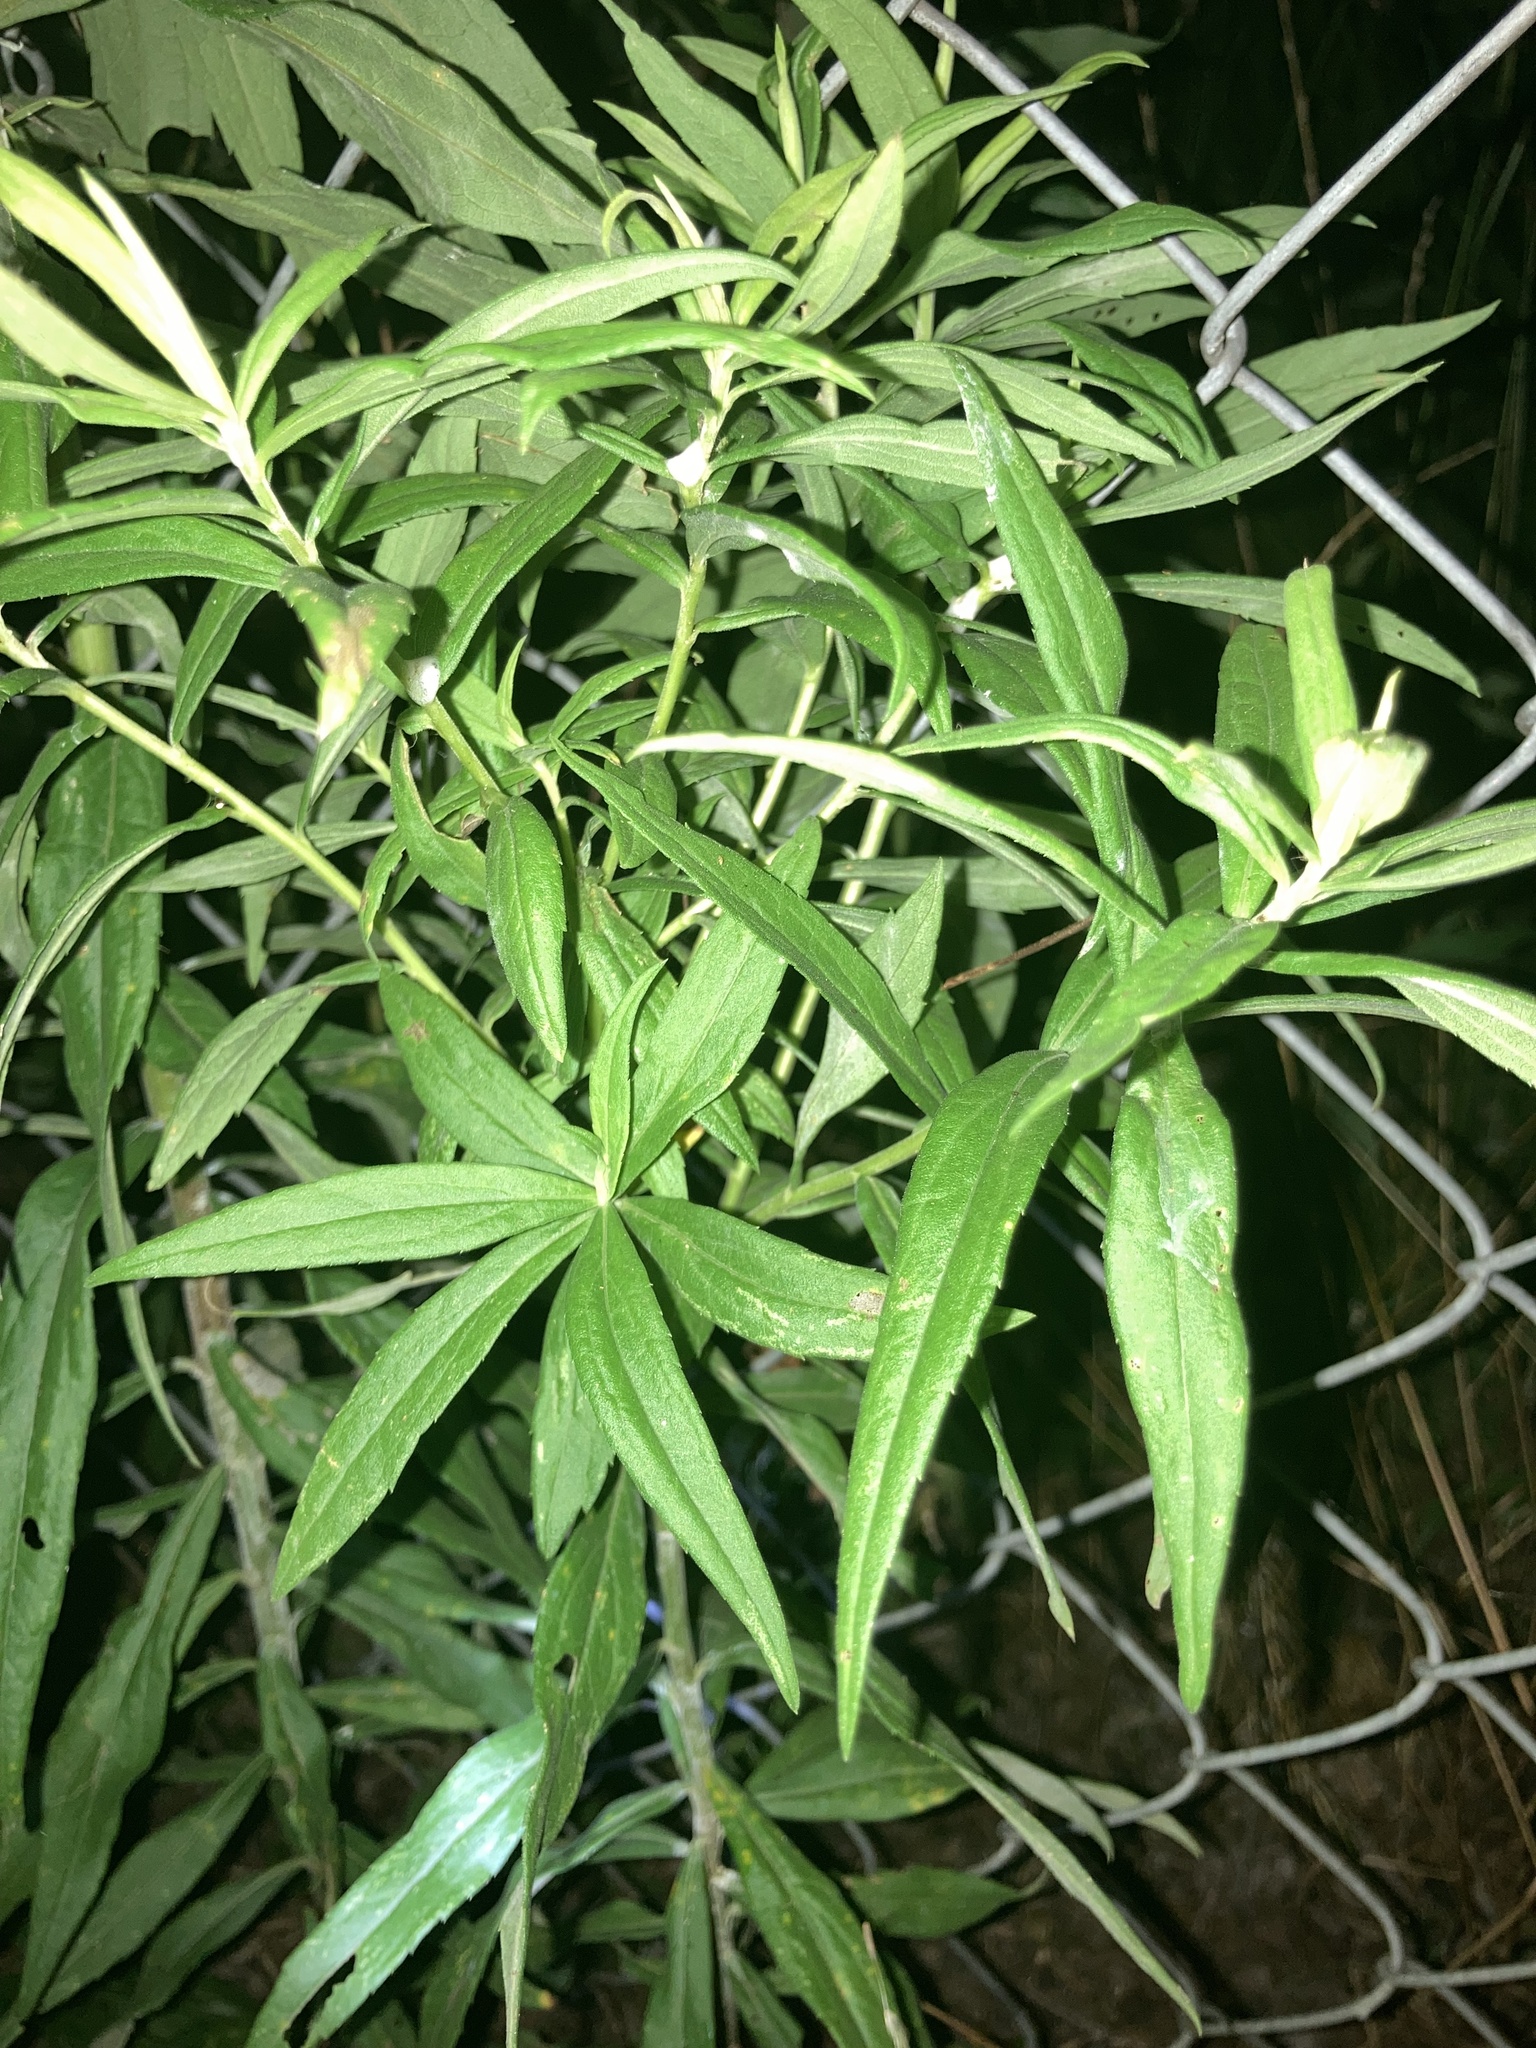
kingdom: Plantae
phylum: Tracheophyta
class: Magnoliopsida
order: Asterales
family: Asteraceae
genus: Solidago
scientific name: Solidago altissima
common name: Late goldenrod
